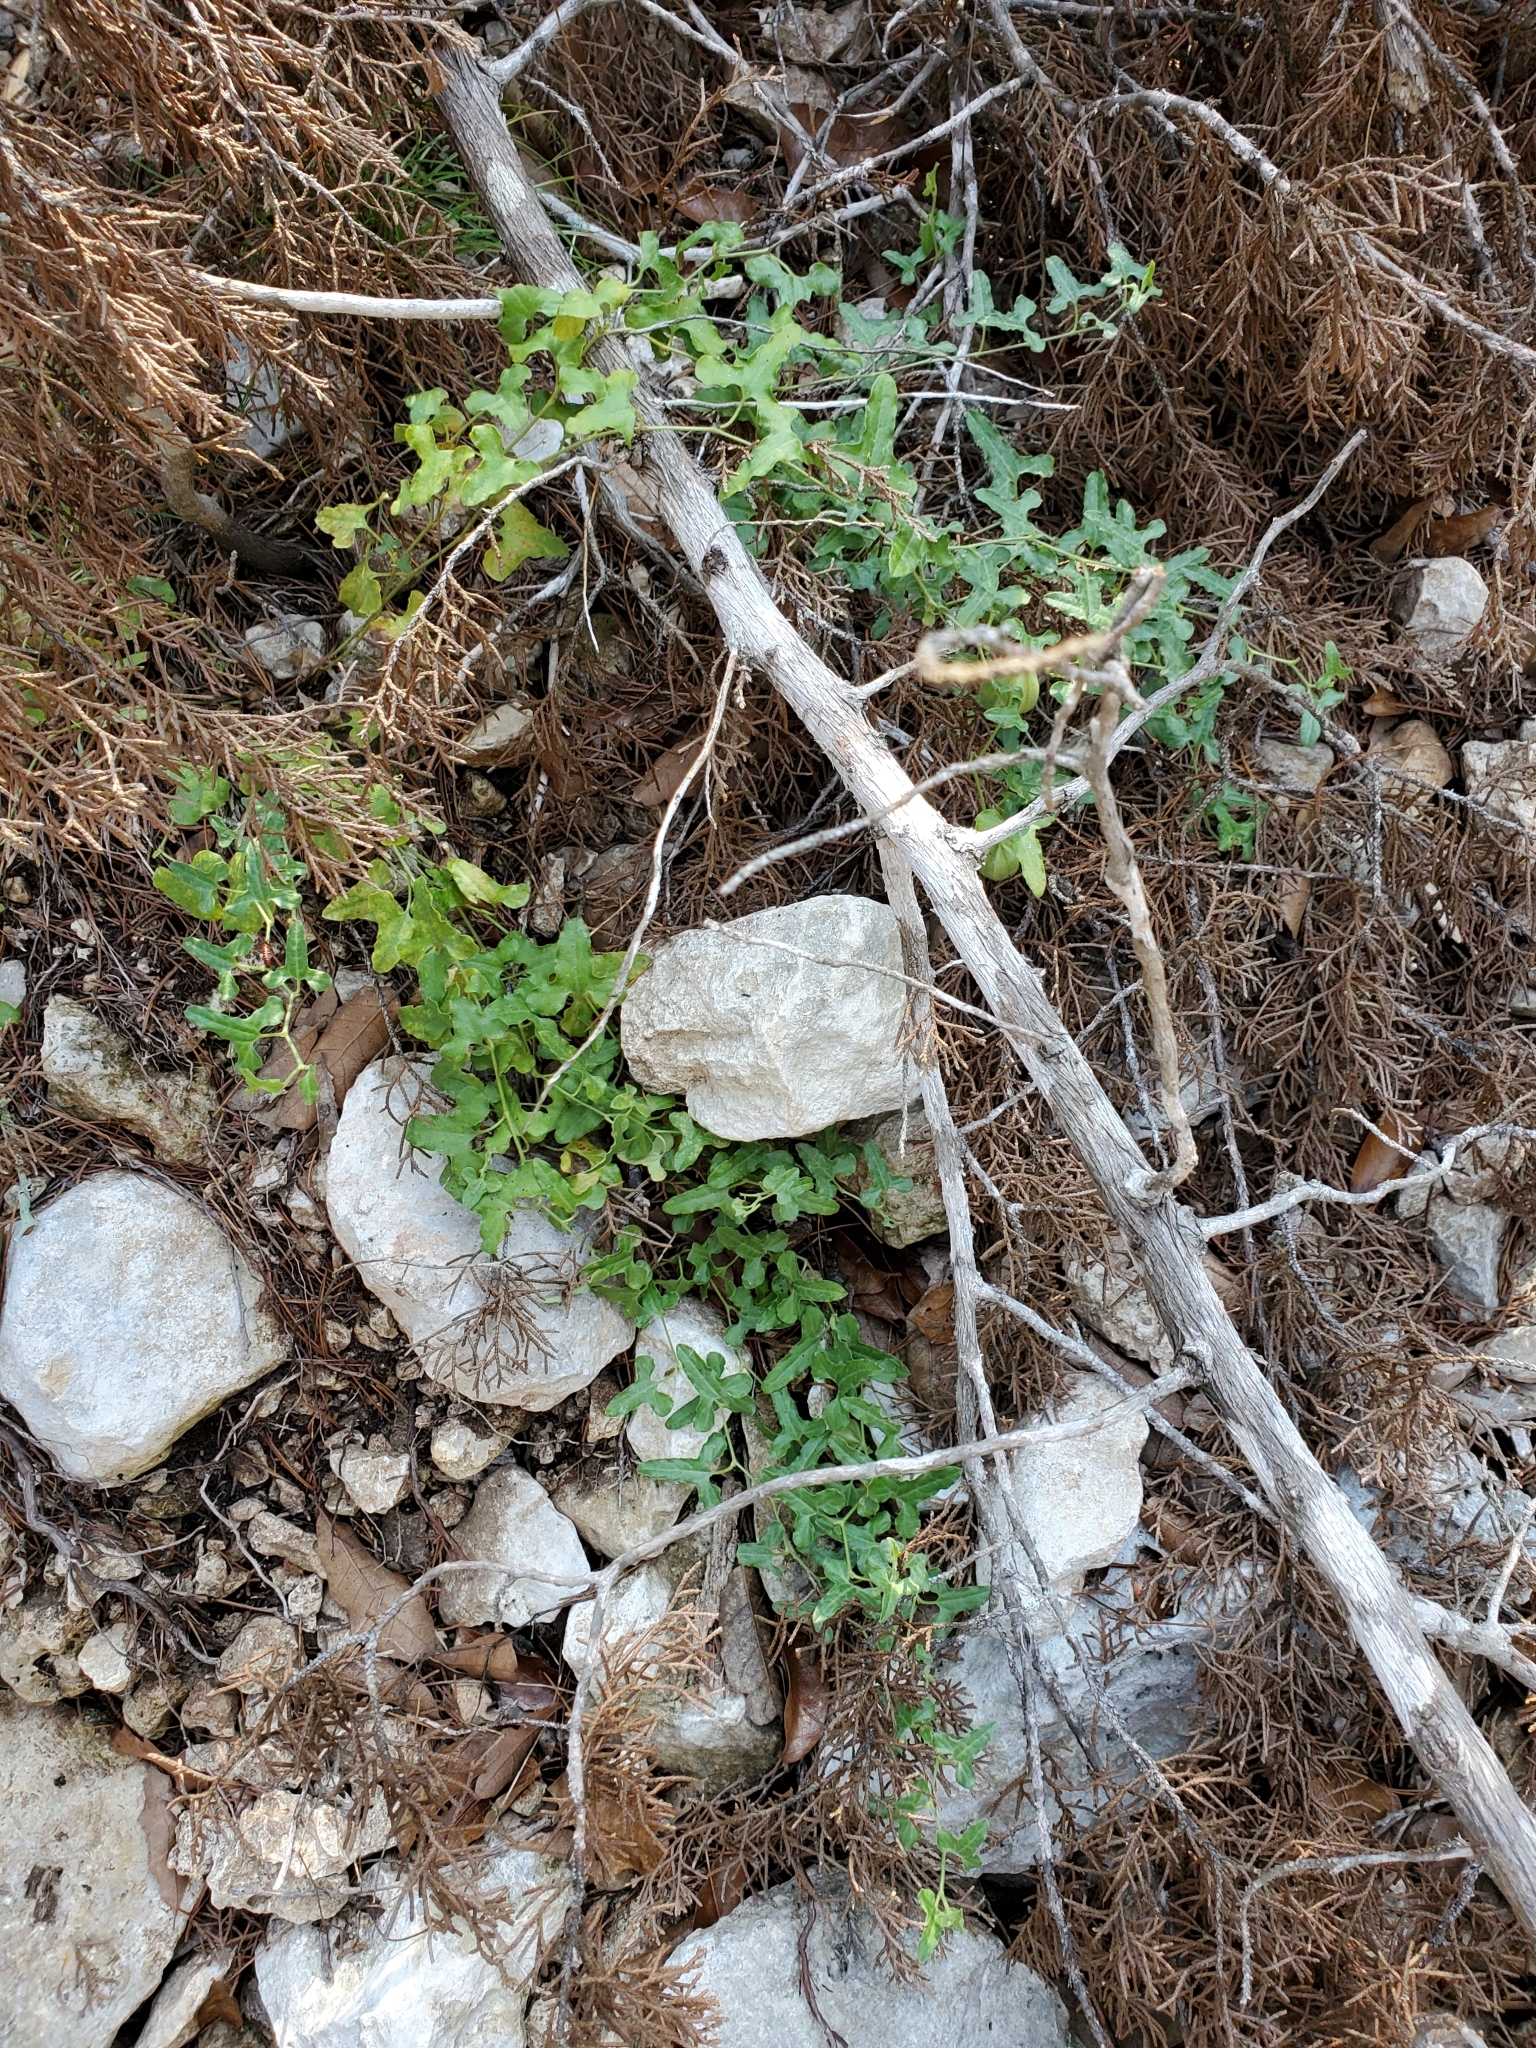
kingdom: Plantae
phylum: Tracheophyta
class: Magnoliopsida
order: Piperales
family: Aristolochiaceae
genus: Aristolochia
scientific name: Aristolochia coryi
